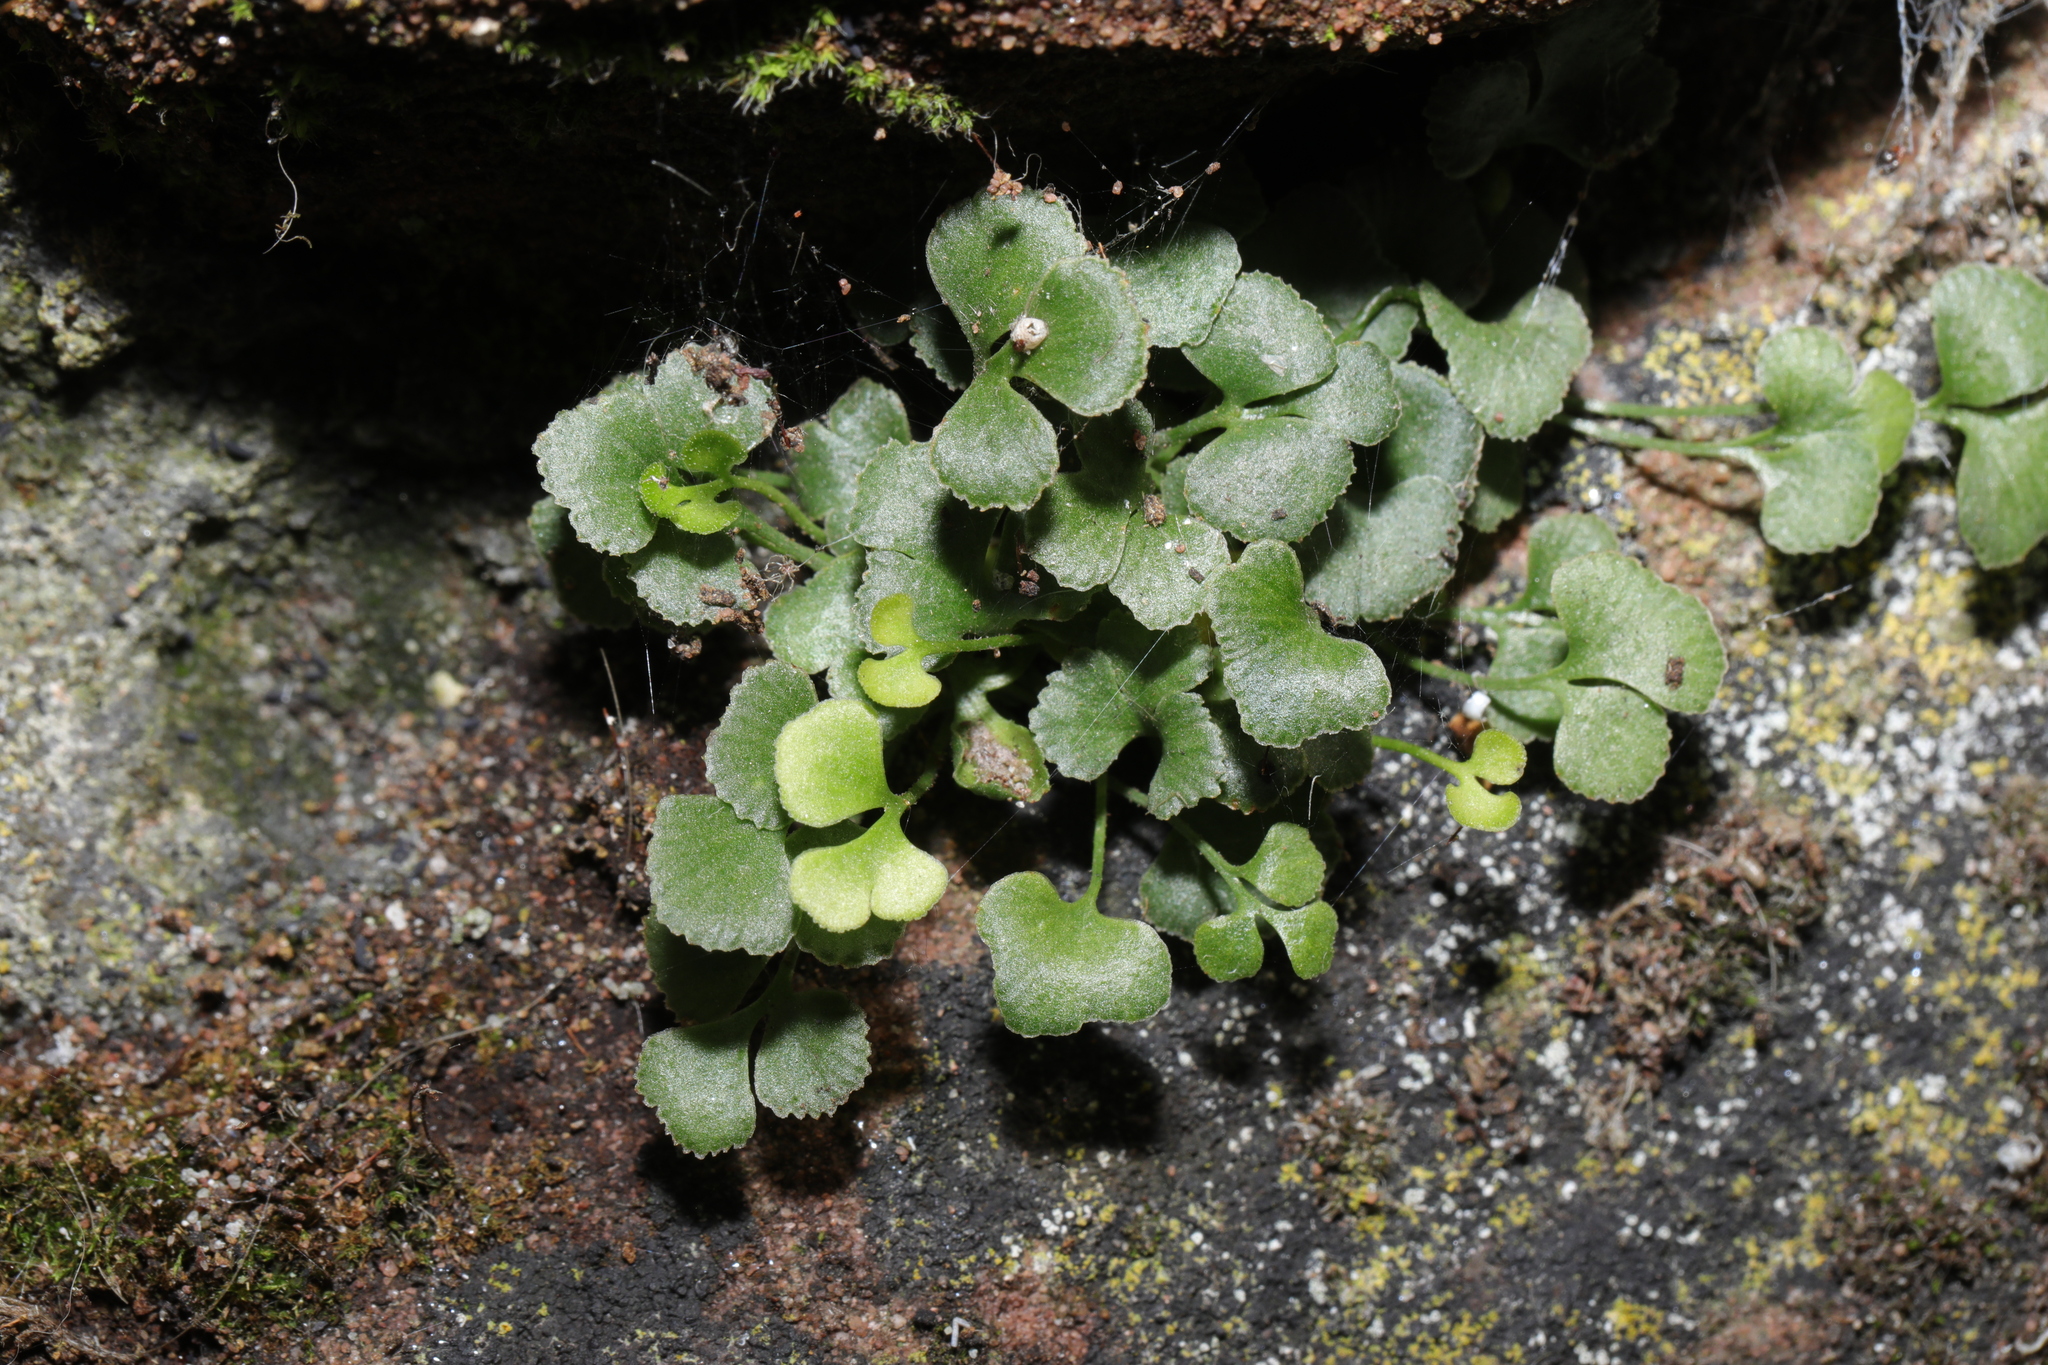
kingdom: Plantae
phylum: Tracheophyta
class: Polypodiopsida
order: Polypodiales
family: Aspleniaceae
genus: Asplenium
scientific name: Asplenium ruta-muraria
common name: Wall-rue
